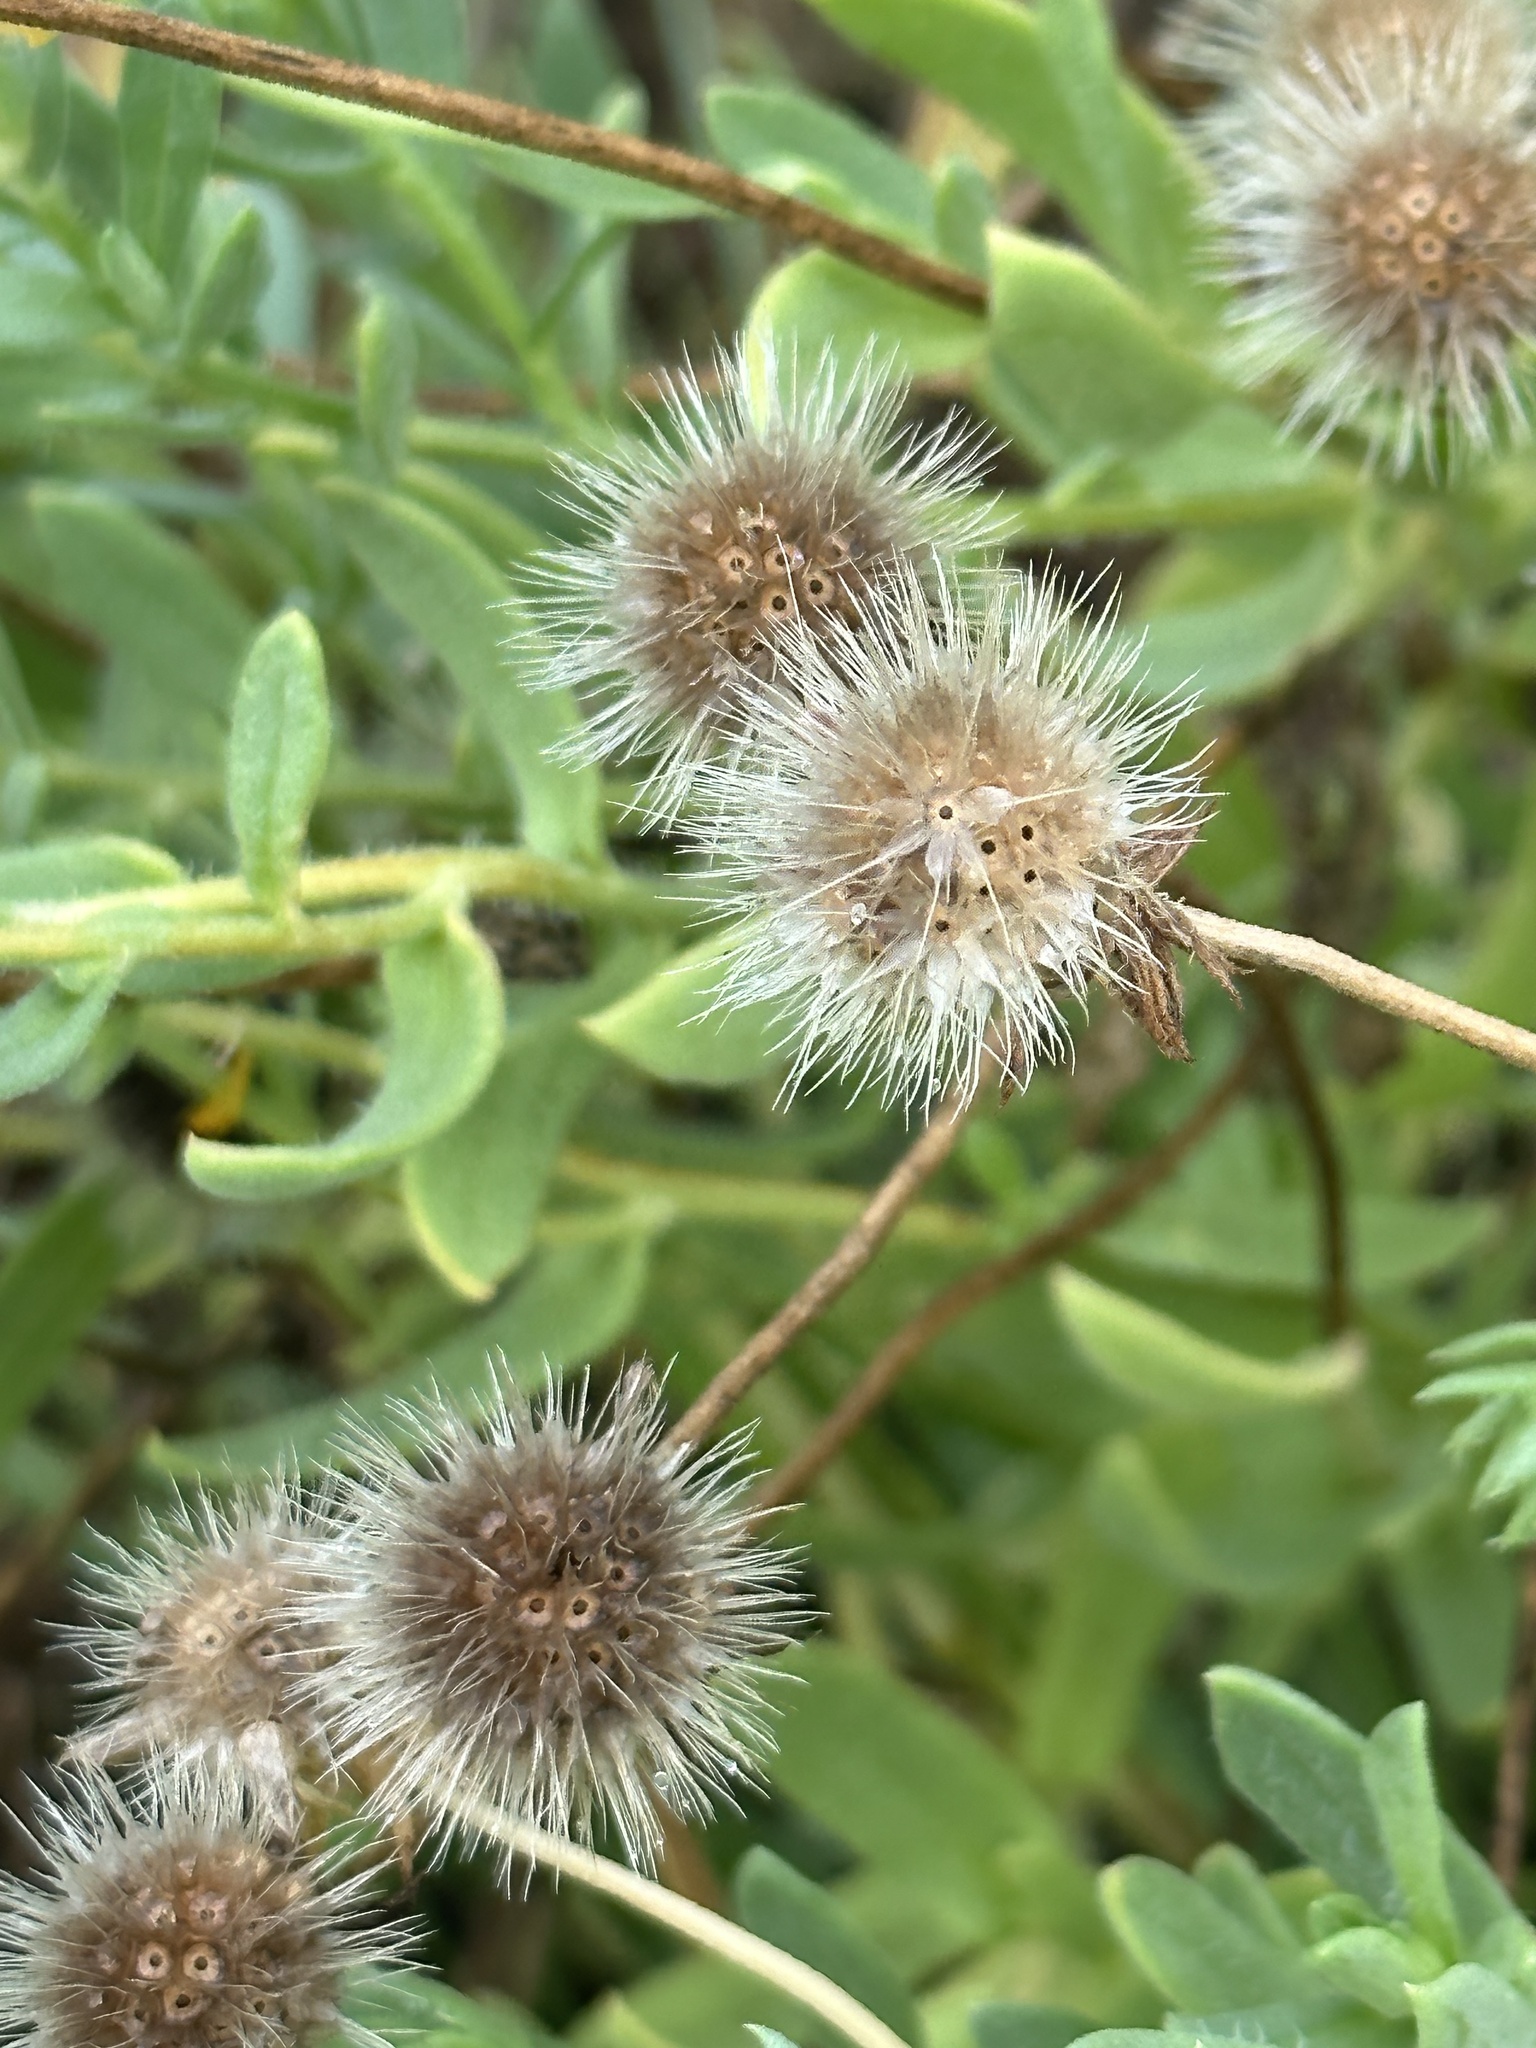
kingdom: Plantae
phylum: Tracheophyta
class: Magnoliopsida
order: Asterales
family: Asteraceae
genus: Gaillardia
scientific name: Gaillardia pulchella
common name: Firewheel
